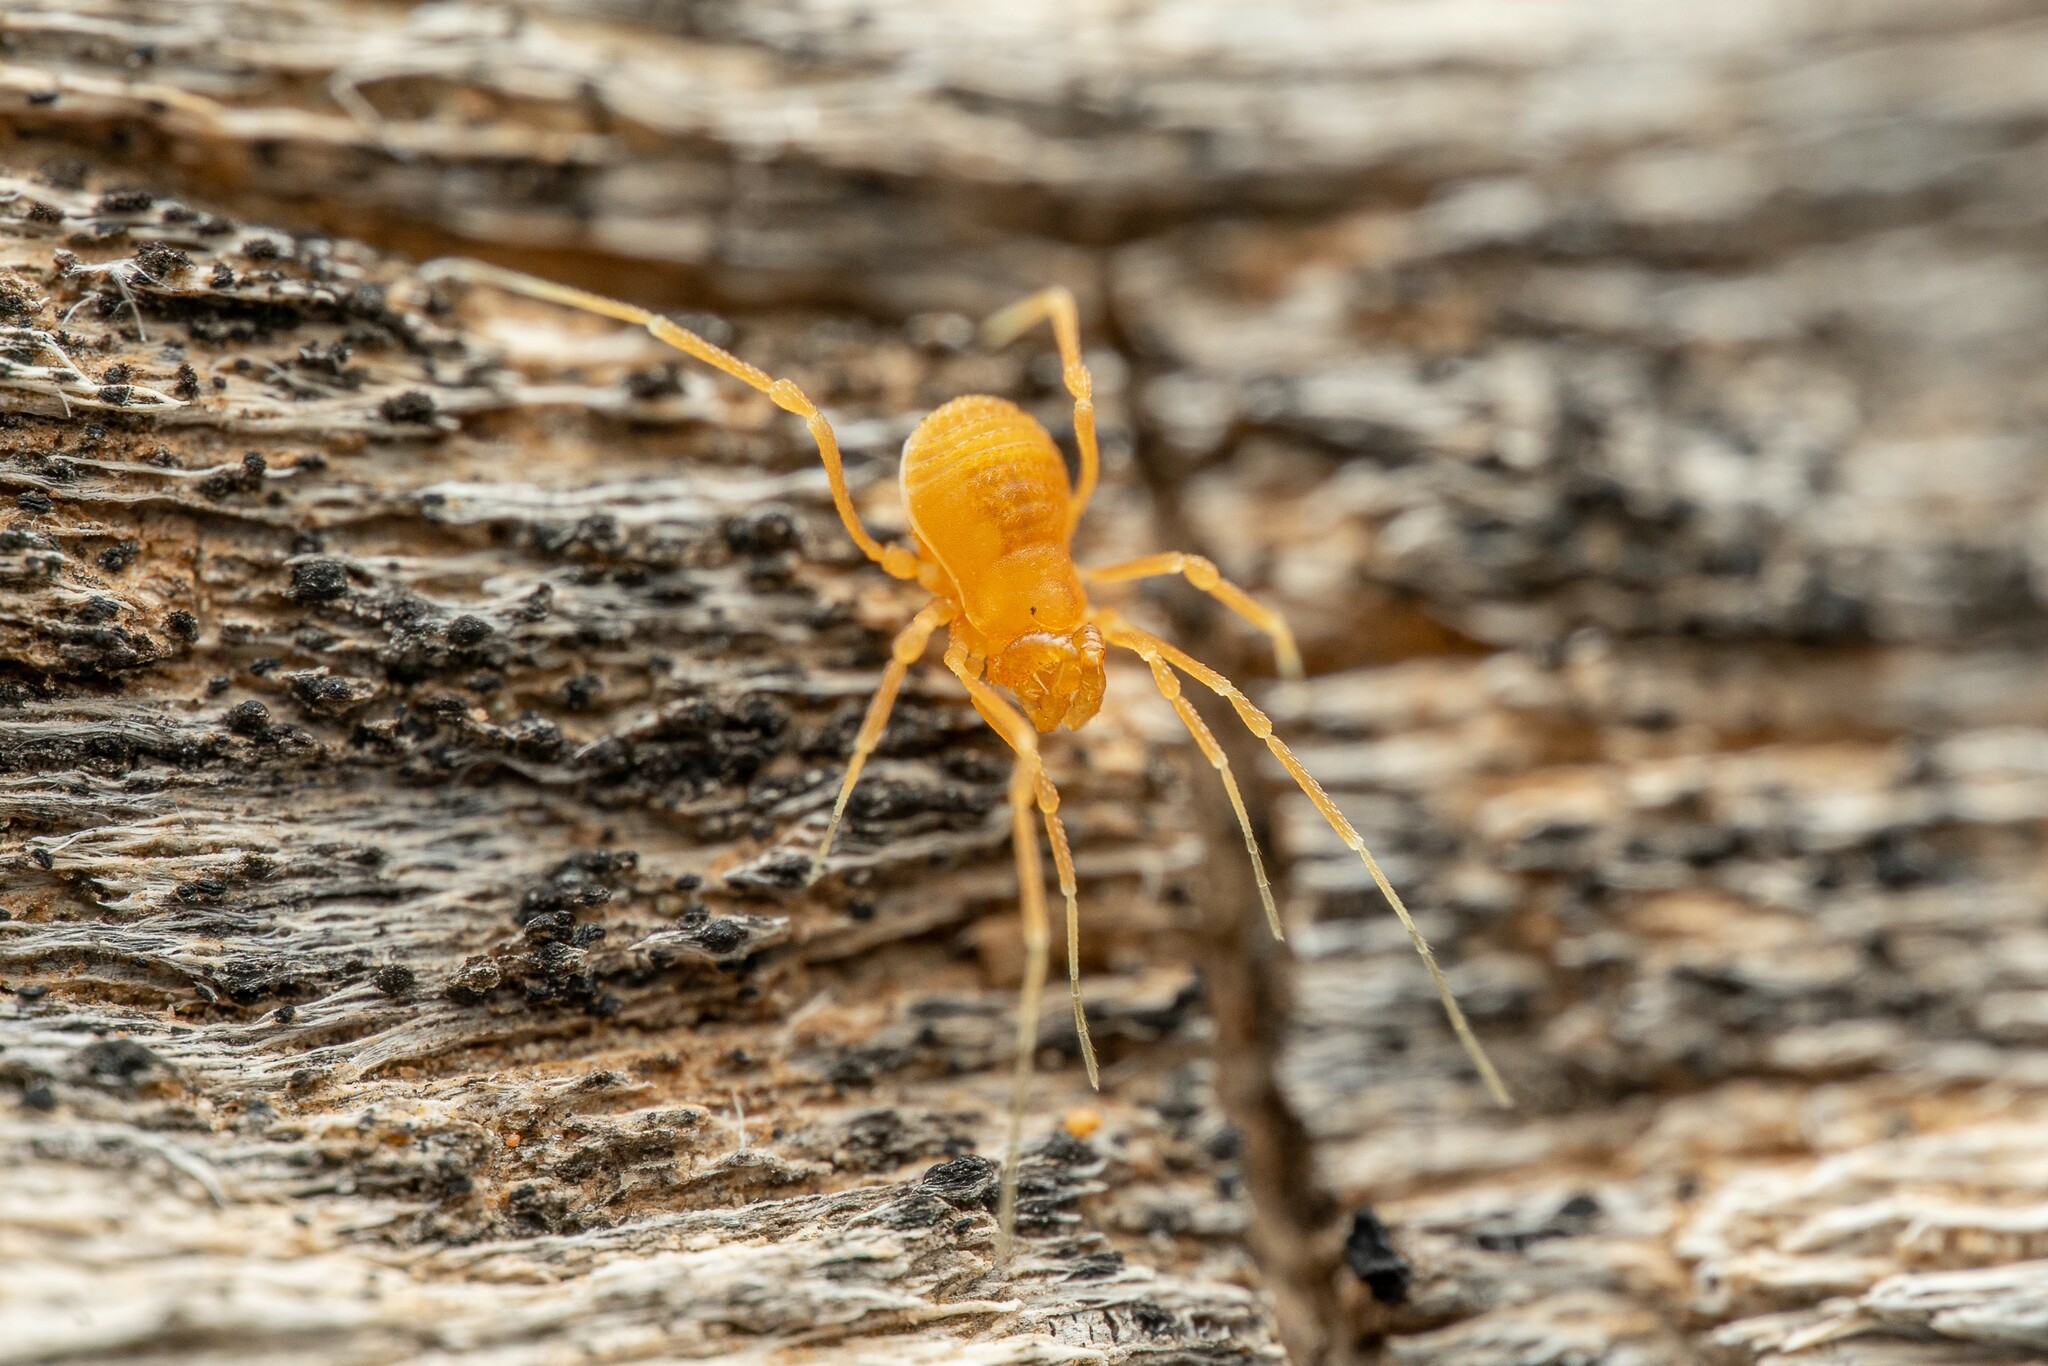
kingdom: Animalia
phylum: Arthropoda
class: Arachnida
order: Opiliones
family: Phalangodidae
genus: Sitalcina
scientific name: Sitalcina
